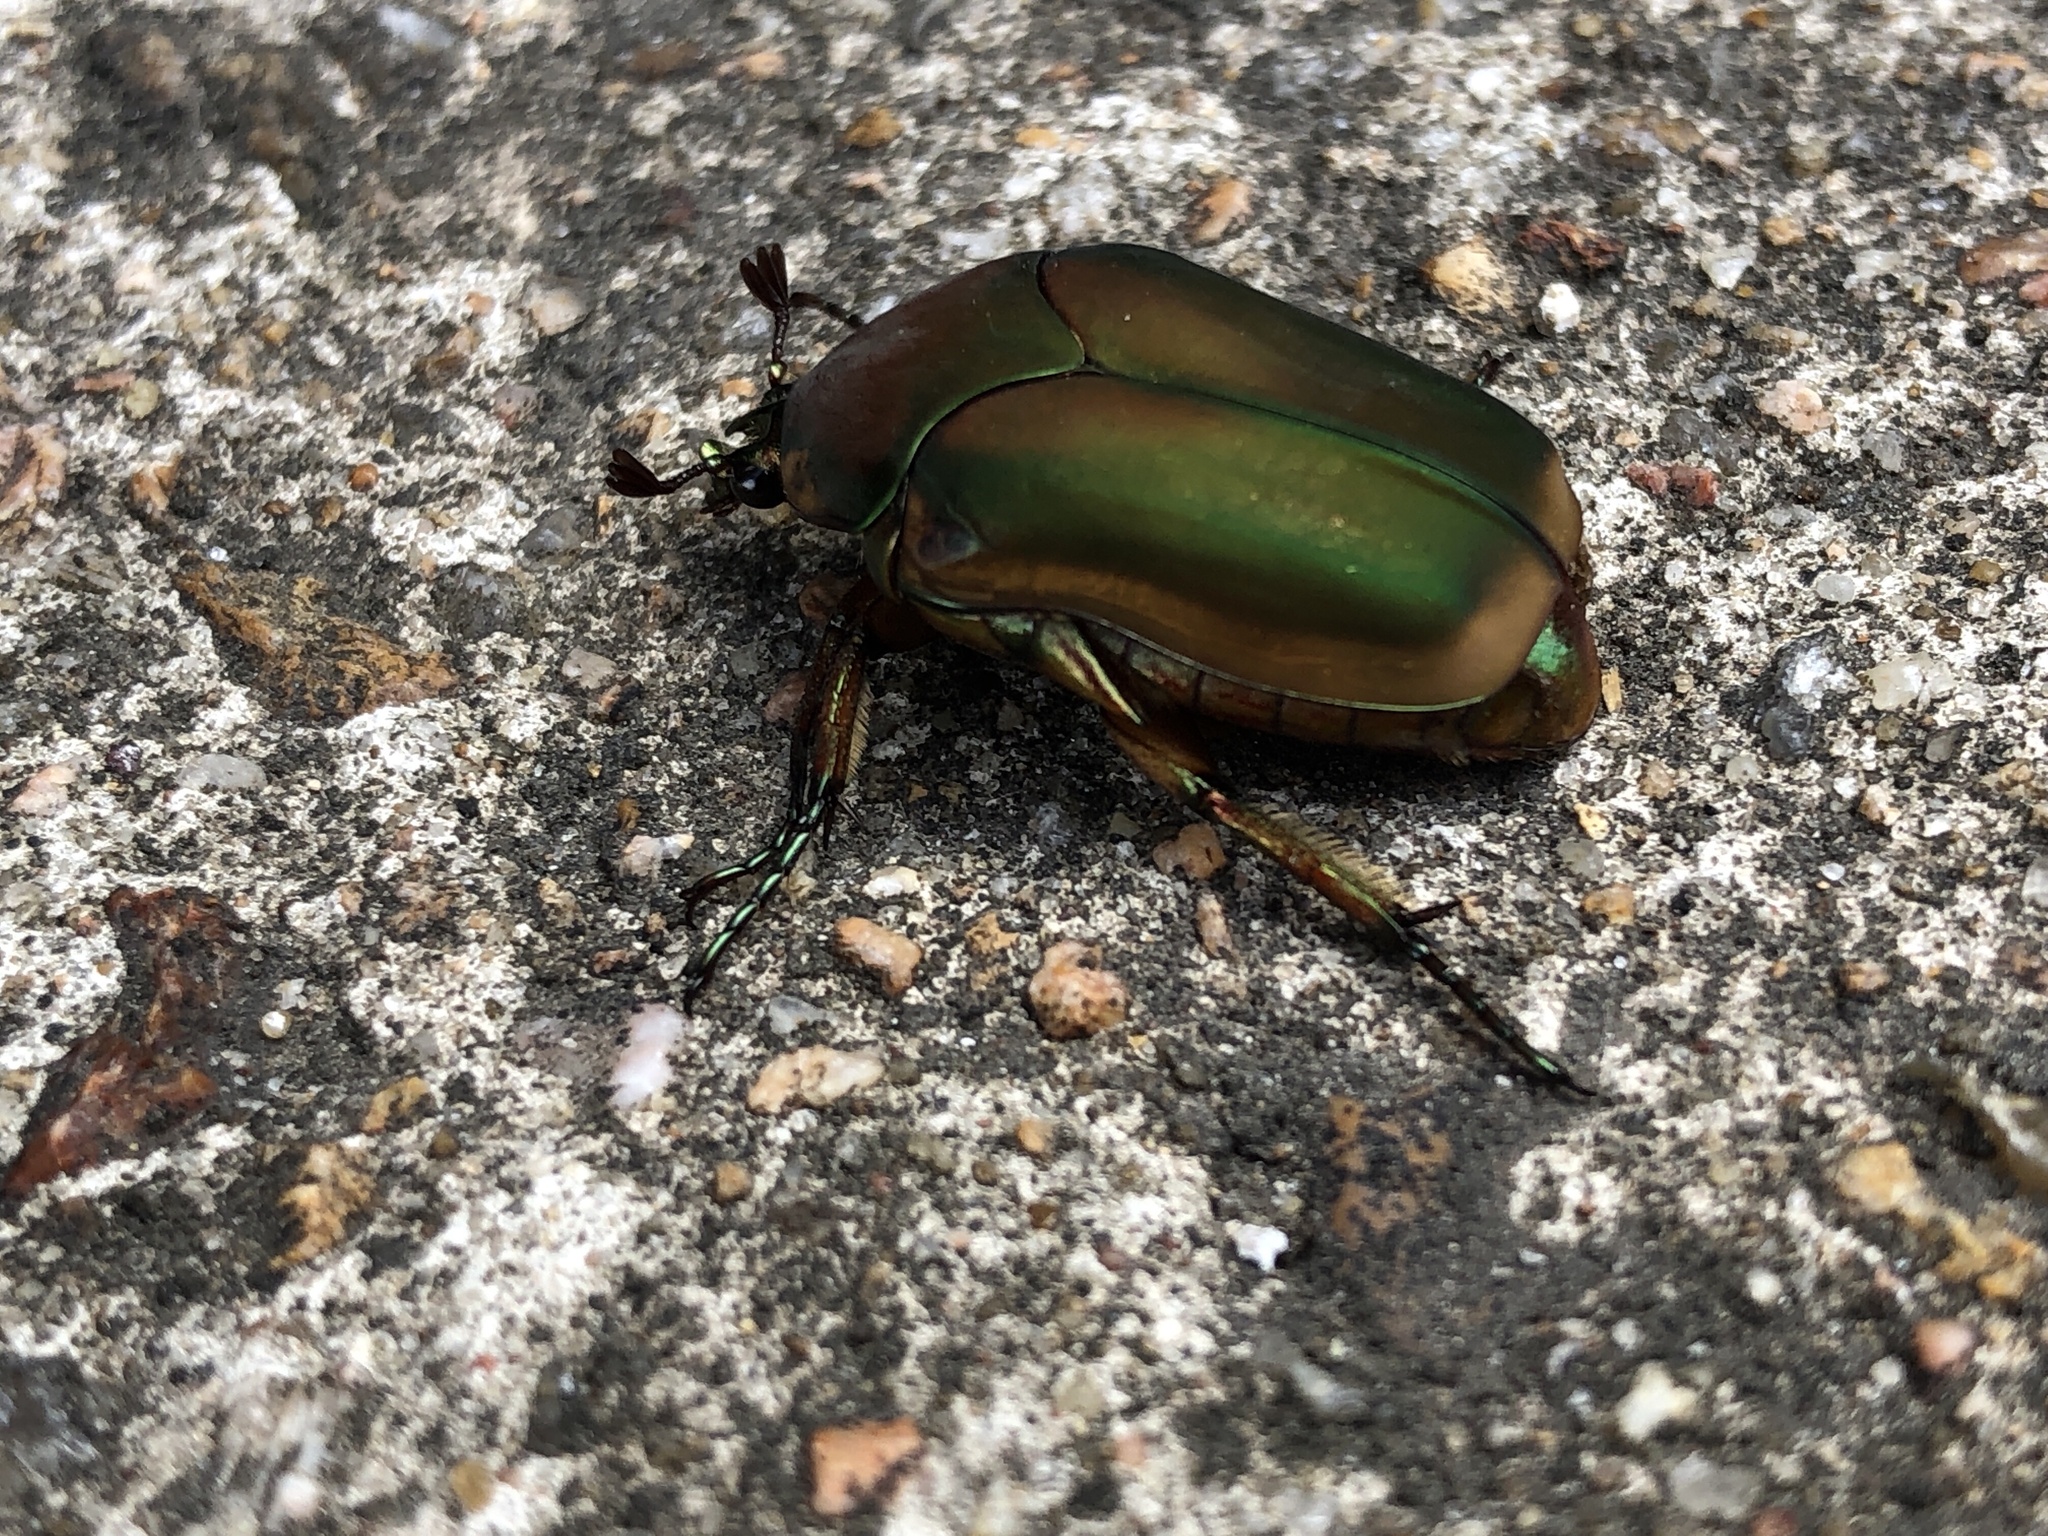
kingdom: Animalia
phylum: Arthropoda
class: Insecta
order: Coleoptera
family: Scarabaeidae
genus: Cotinis
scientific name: Cotinis nitida
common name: Common green june beetle
